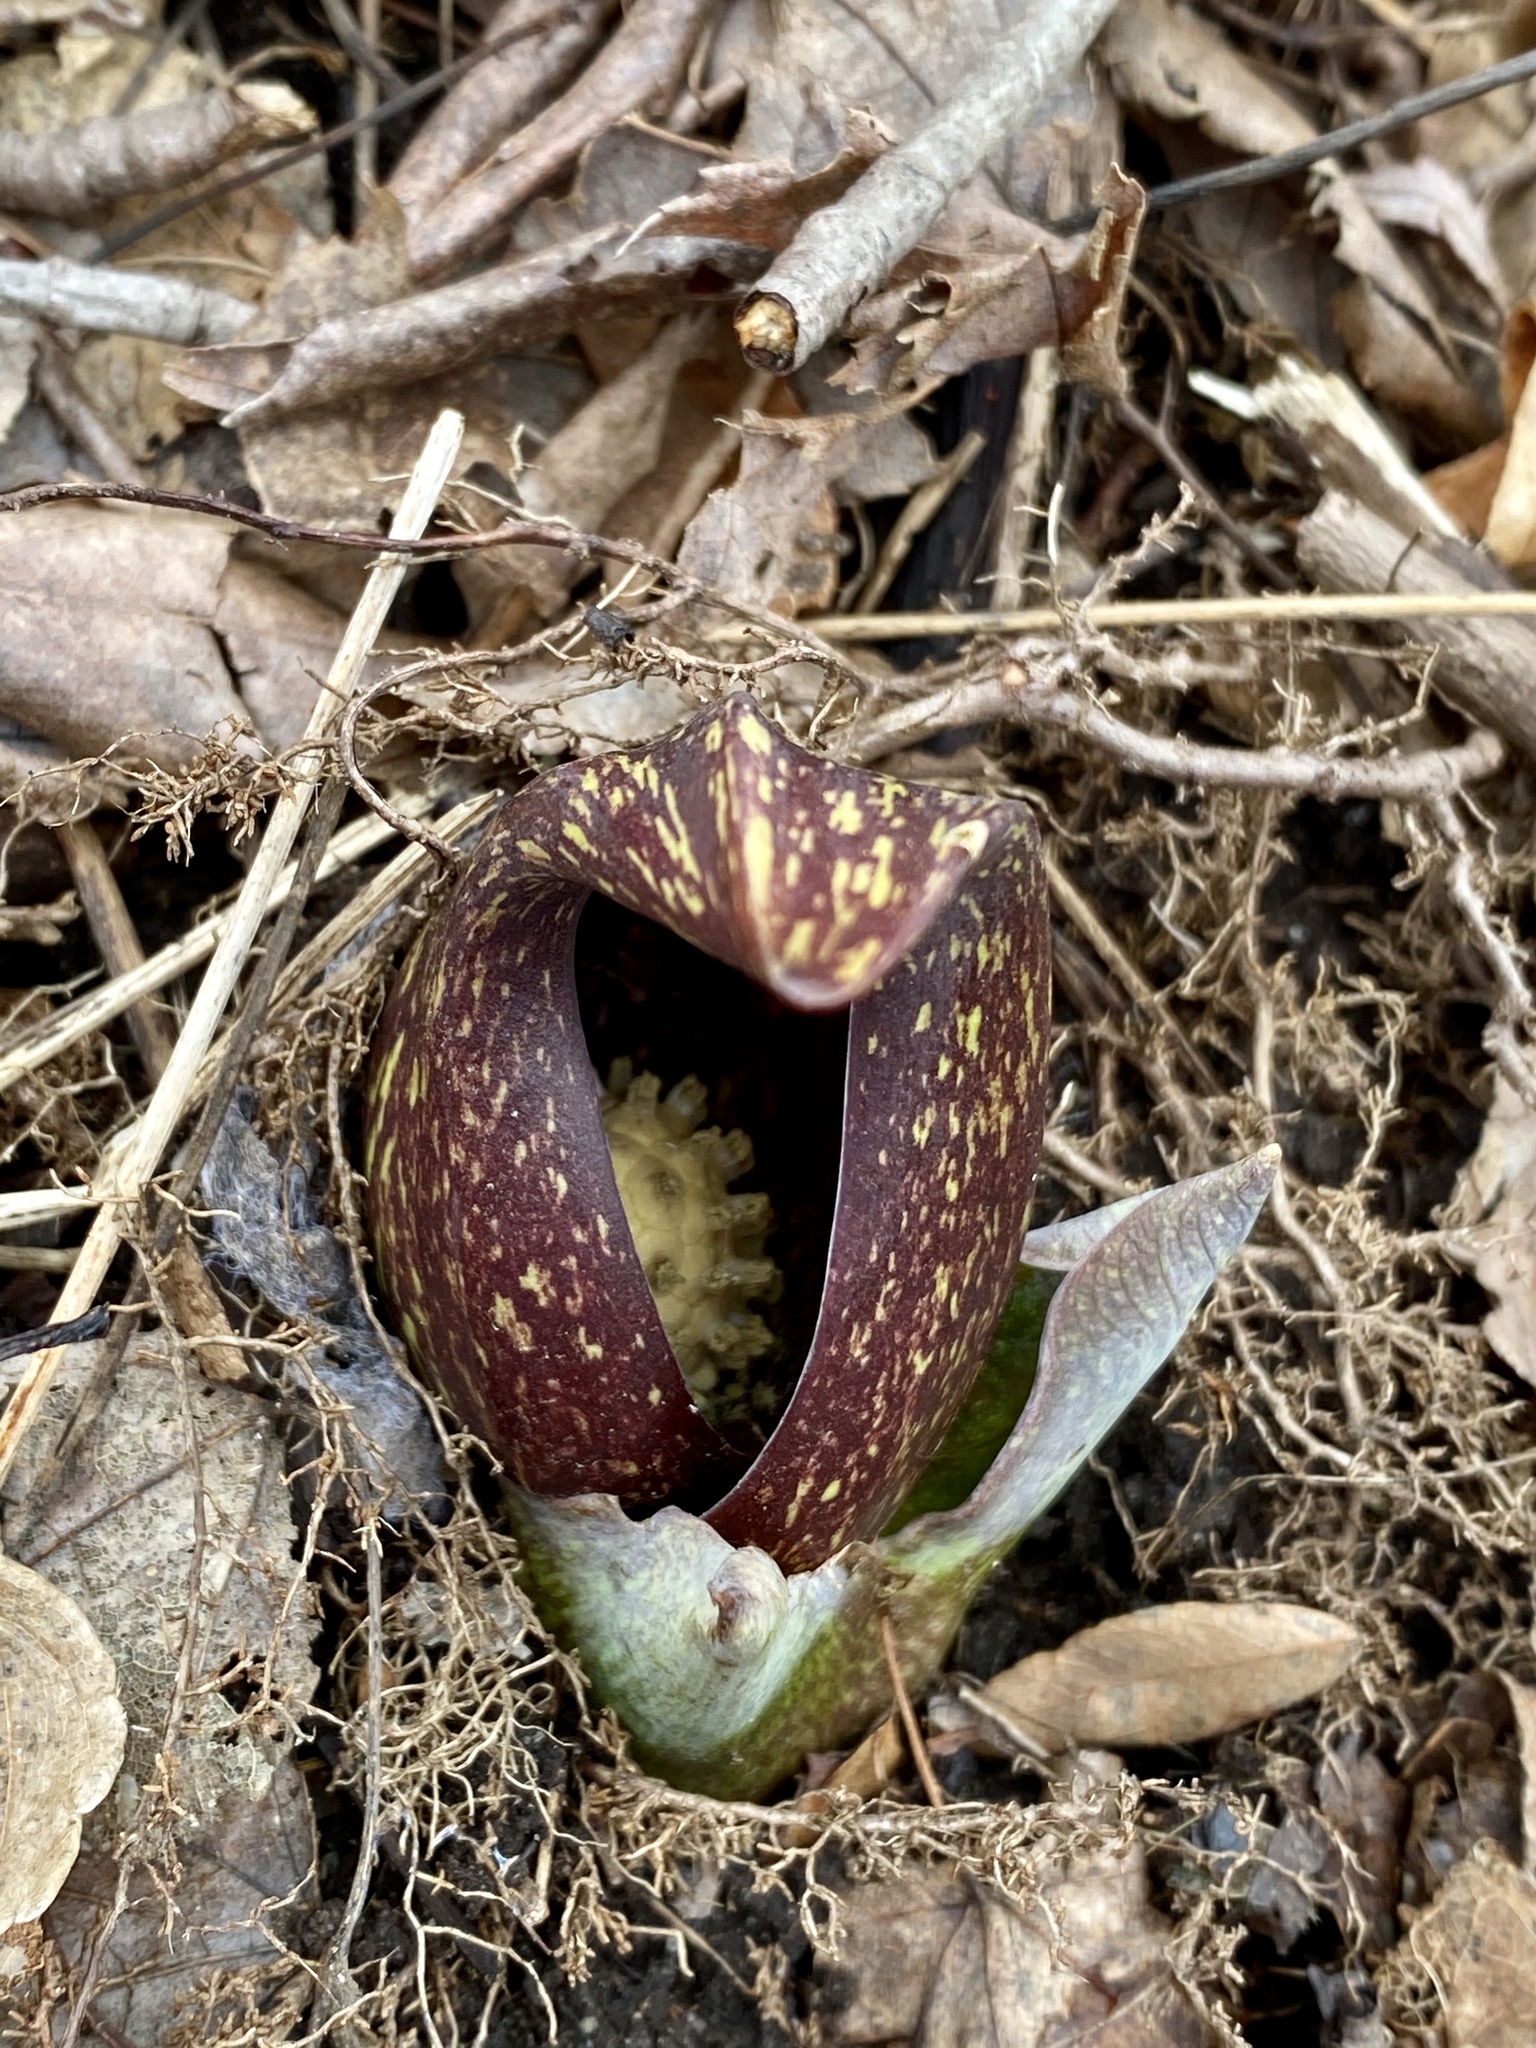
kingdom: Plantae
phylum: Tracheophyta
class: Liliopsida
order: Alismatales
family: Araceae
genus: Symplocarpus
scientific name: Symplocarpus foetidus
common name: Eastern skunk cabbage
